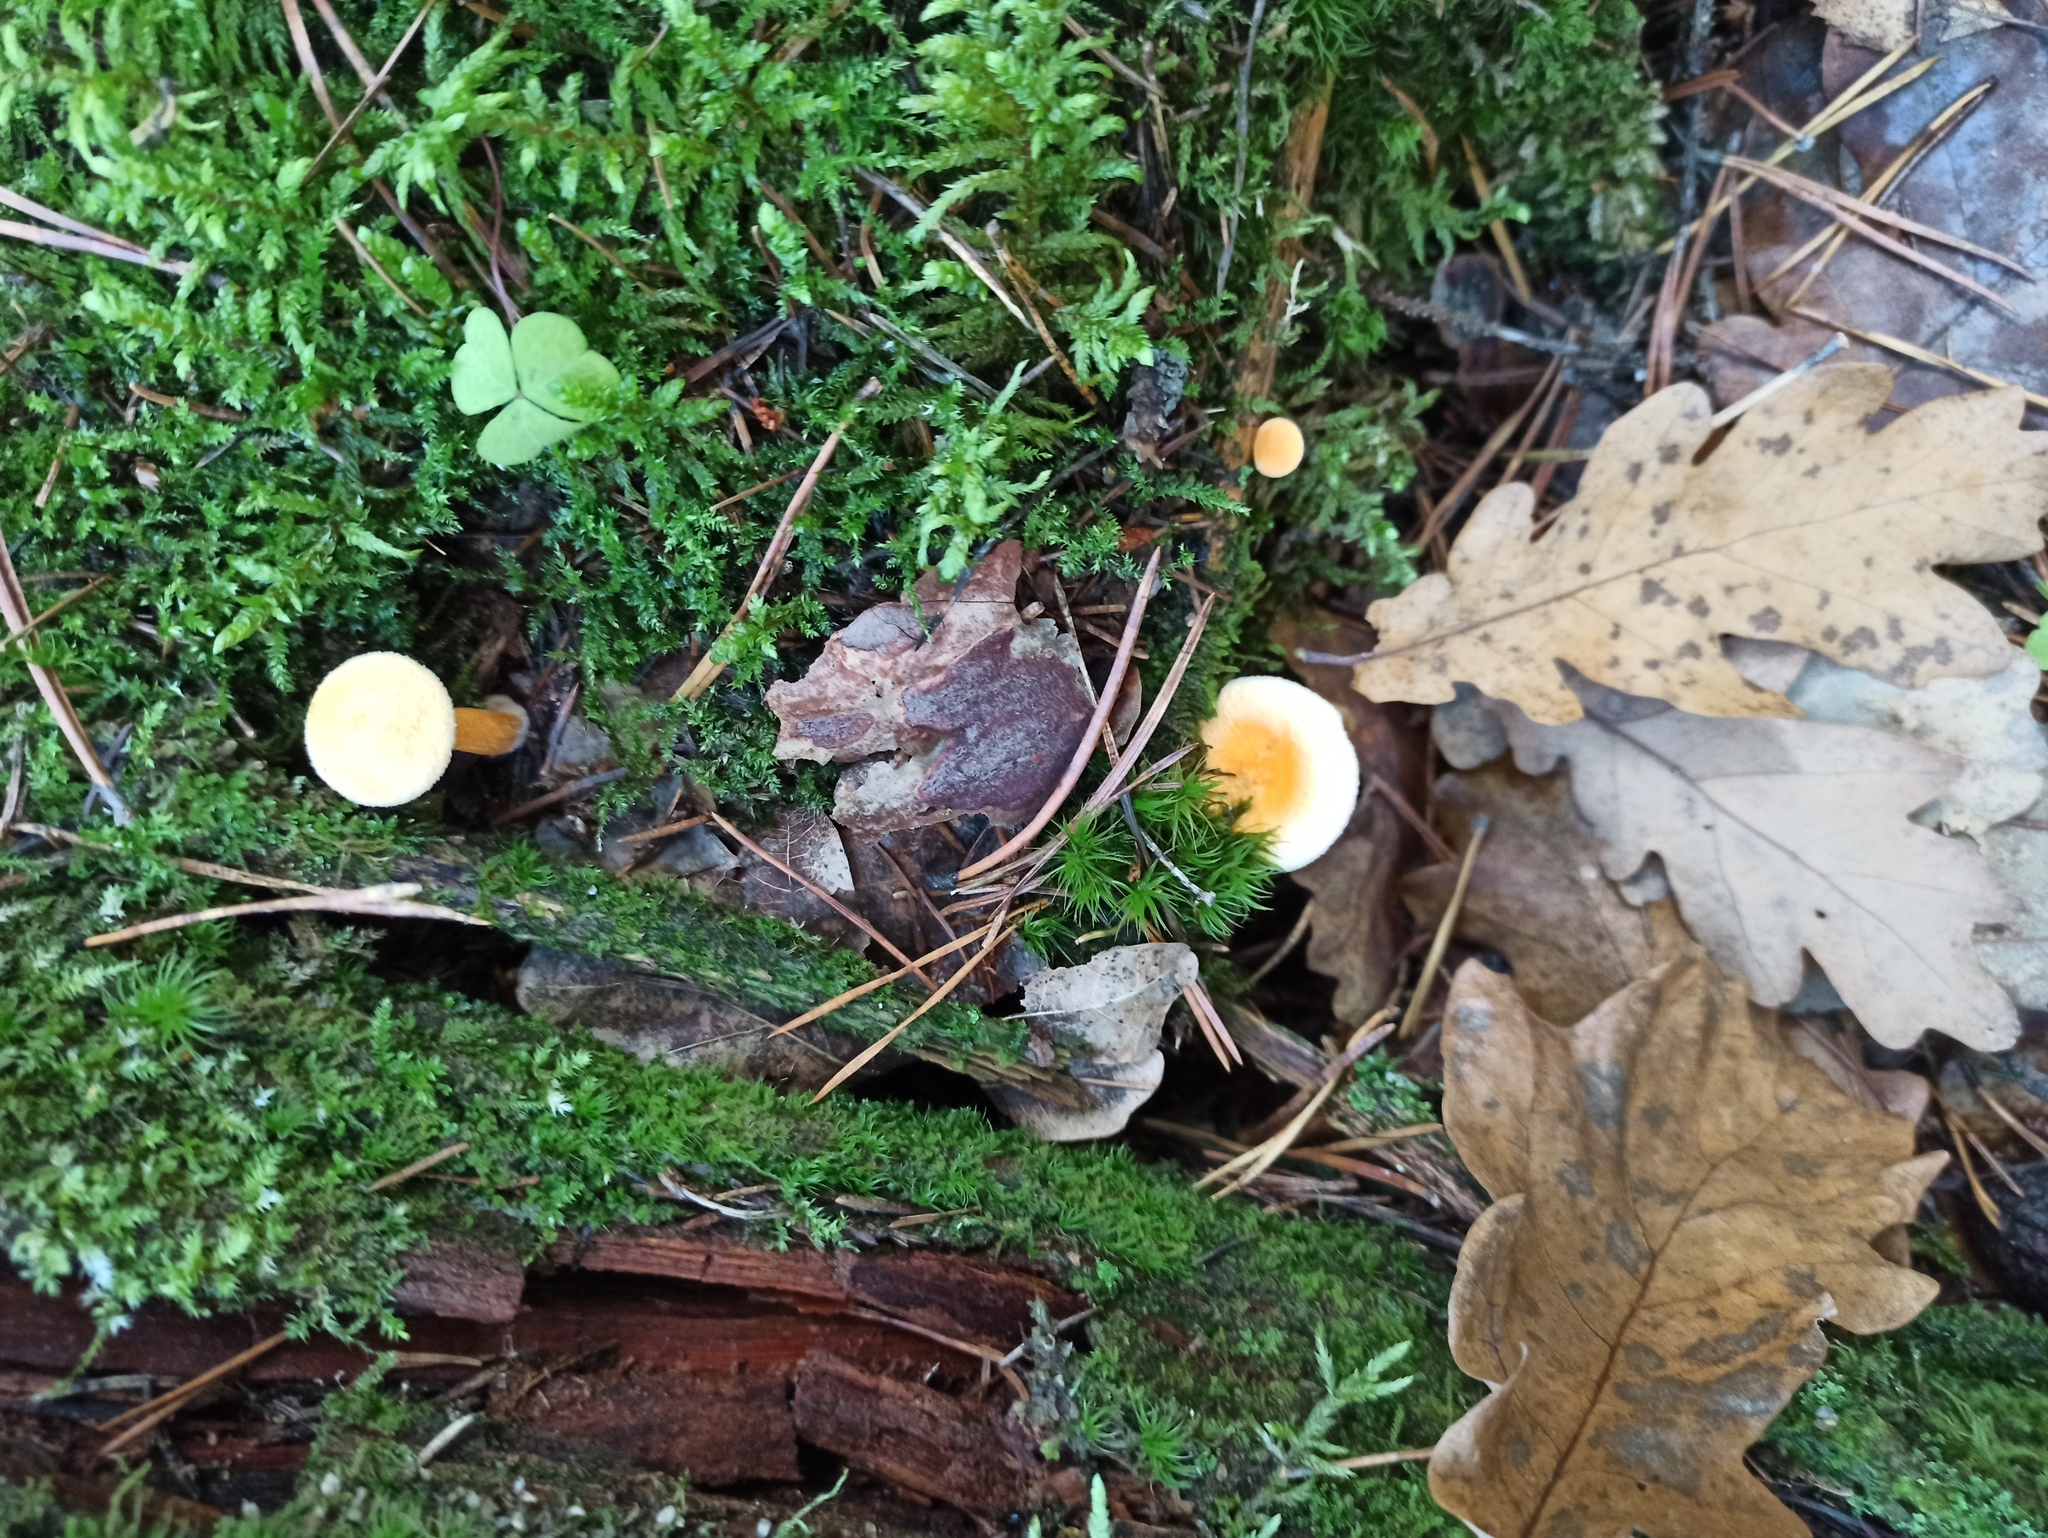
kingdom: Fungi
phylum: Basidiomycota
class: Agaricomycetes
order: Boletales
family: Hygrophoropsidaceae
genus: Hygrophoropsis
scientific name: Hygrophoropsis aurantiaca
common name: False chanterelle
